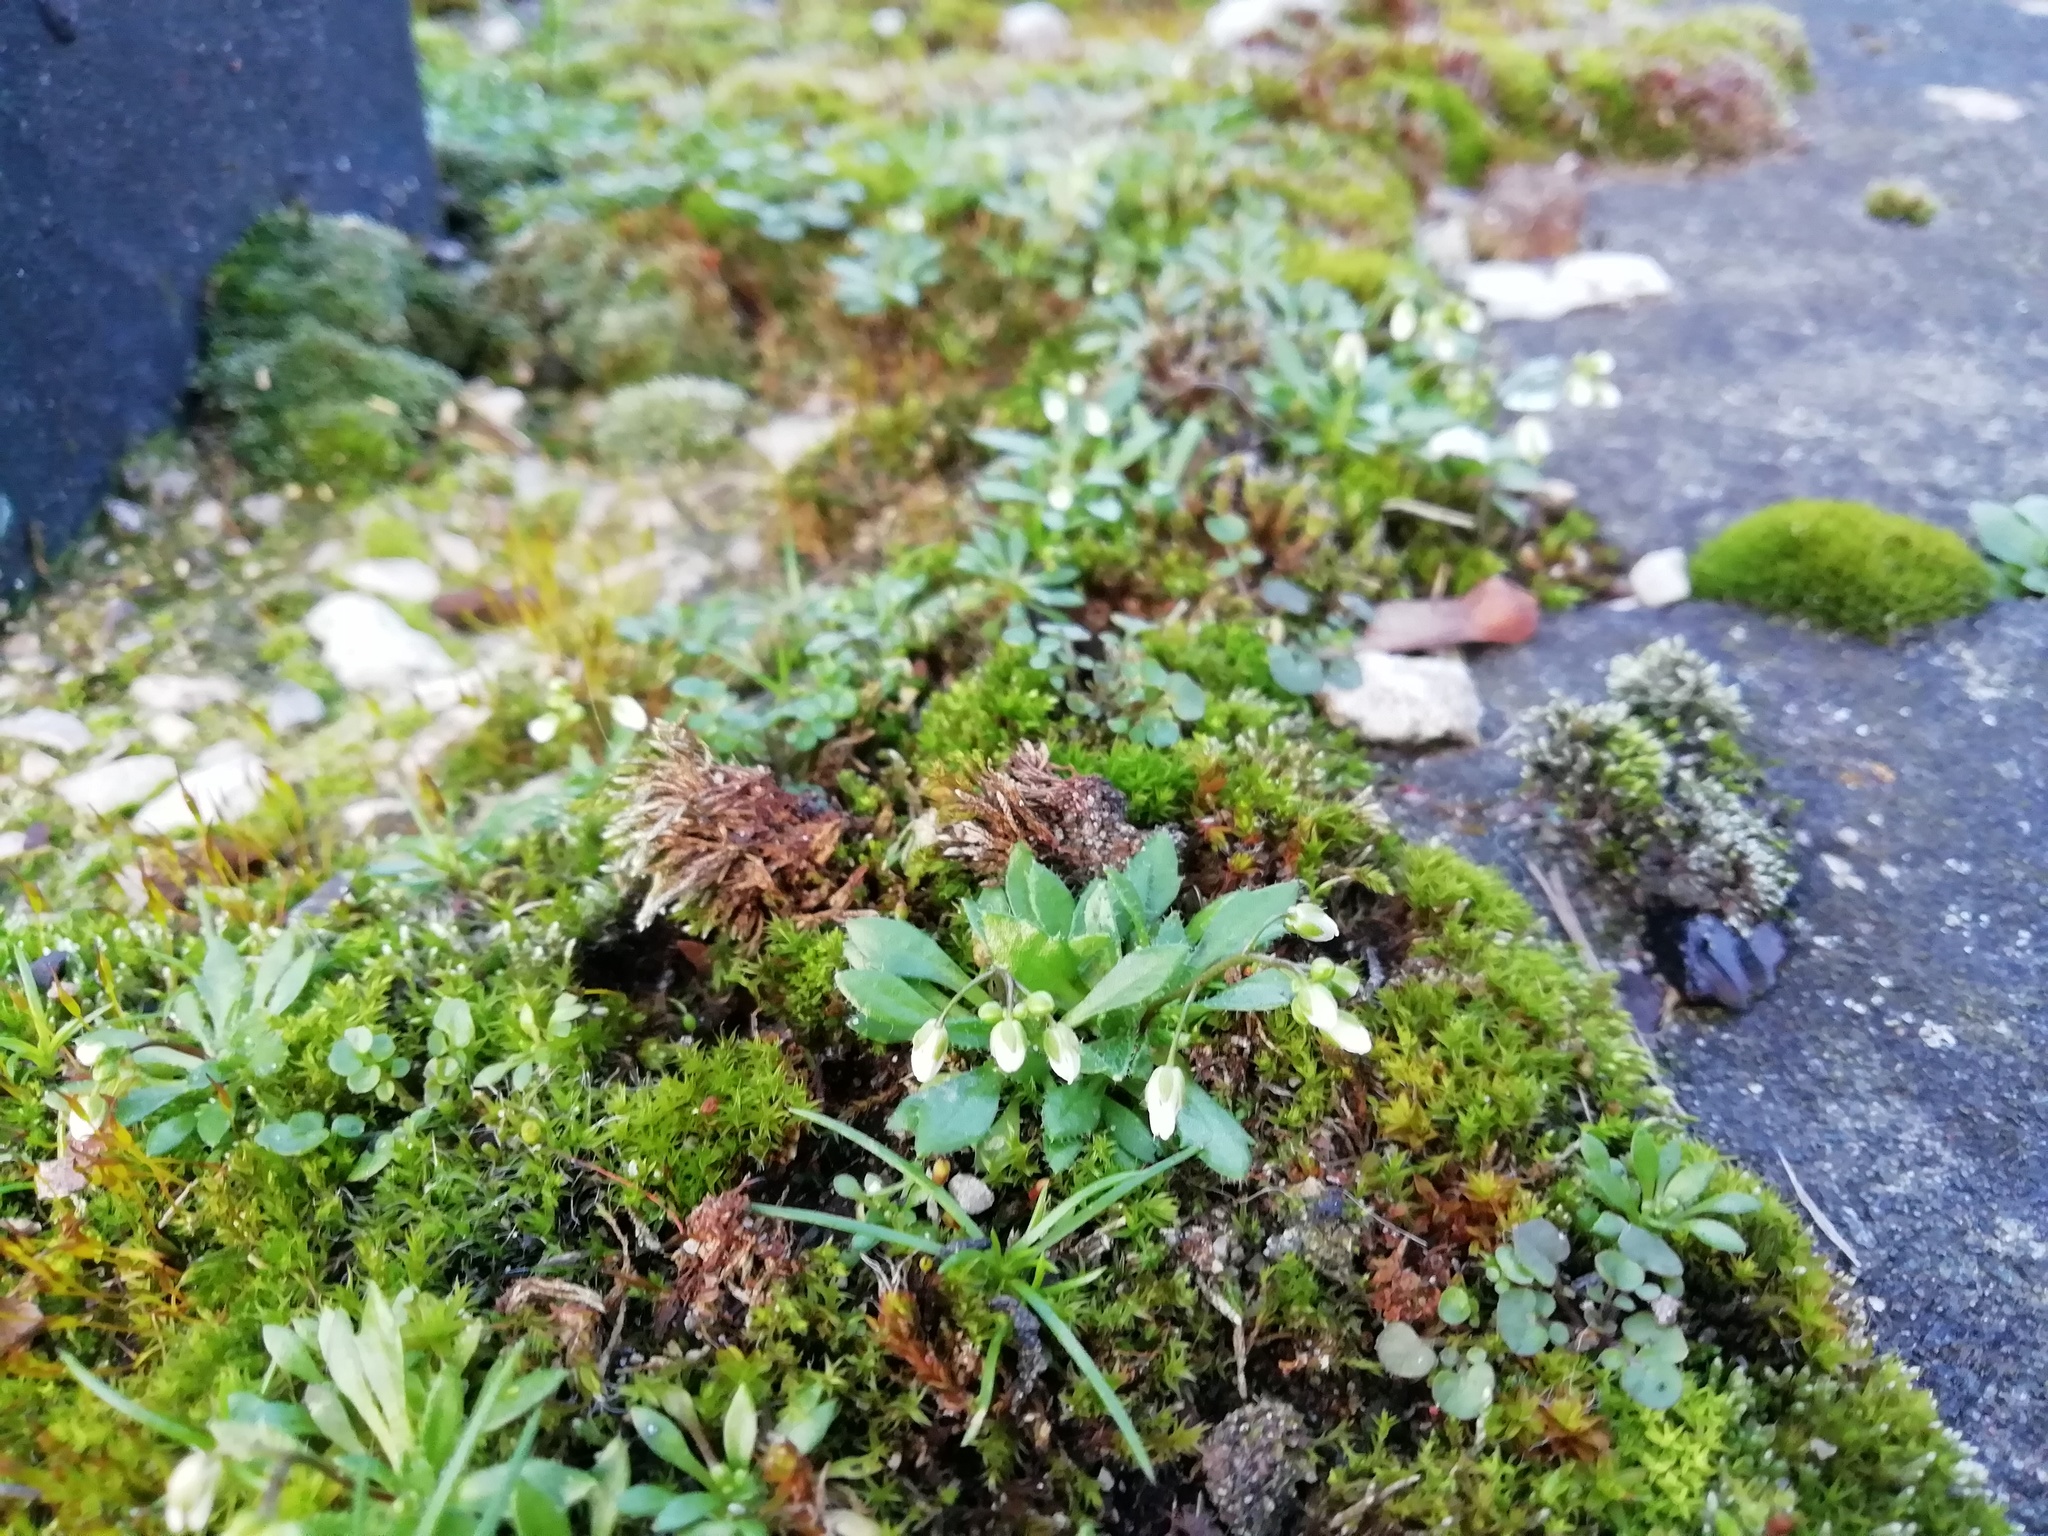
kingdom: Plantae
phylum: Tracheophyta
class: Magnoliopsida
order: Brassicales
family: Brassicaceae
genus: Draba
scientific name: Draba verna
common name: Spring draba
